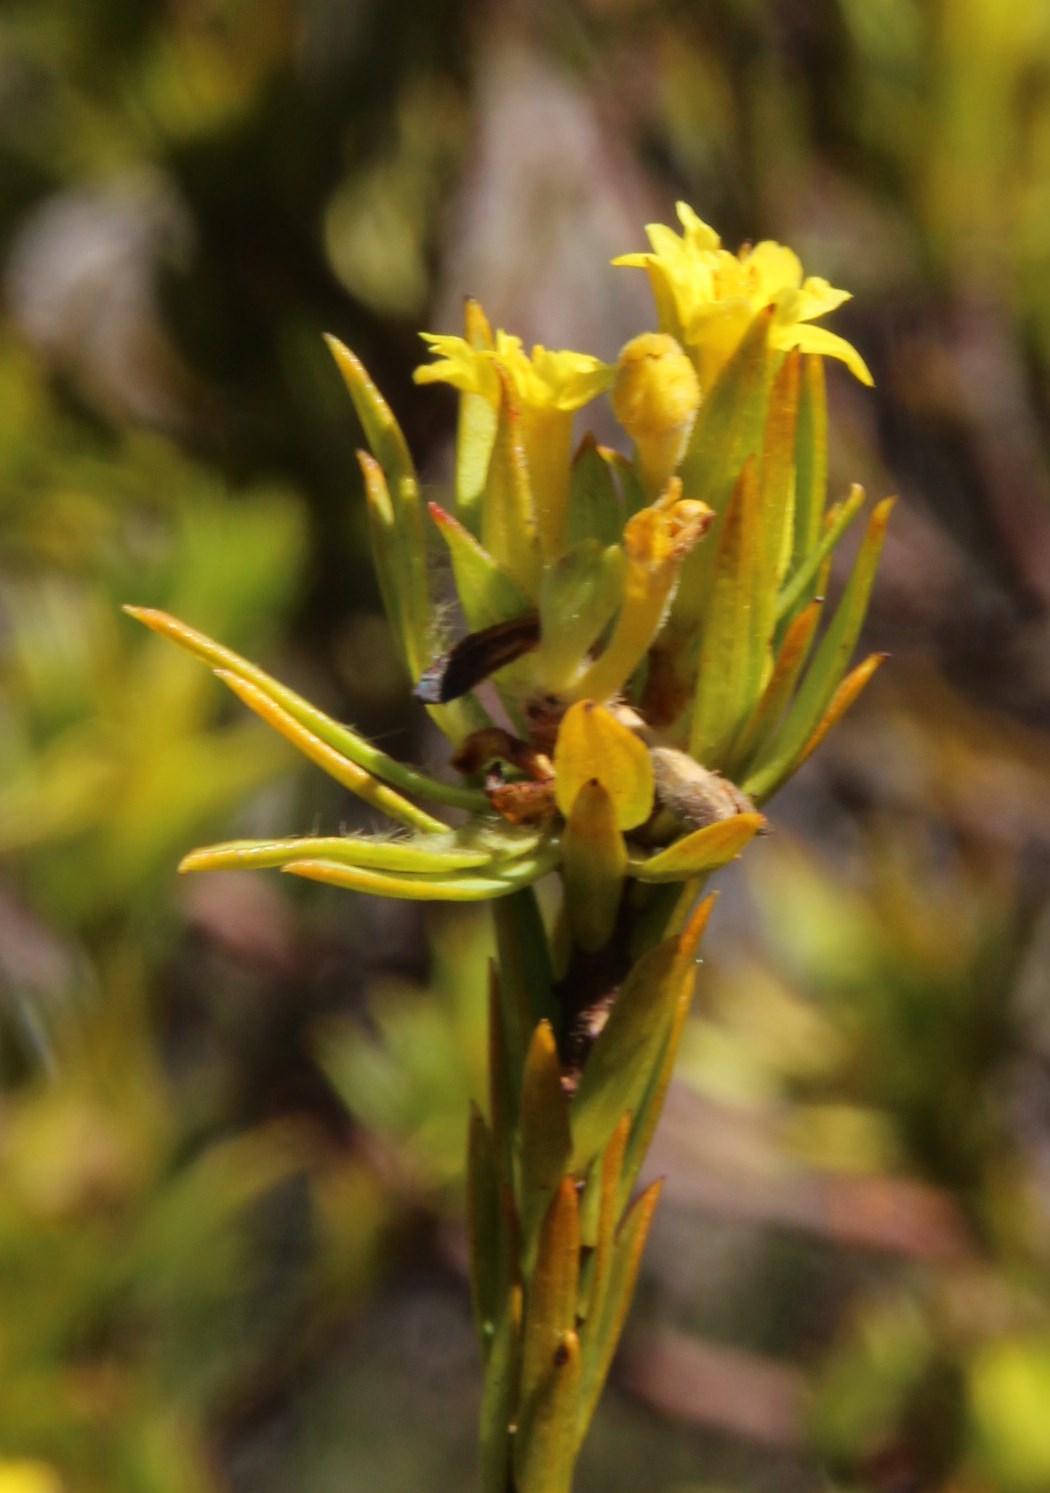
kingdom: Plantae
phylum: Tracheophyta
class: Magnoliopsida
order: Malvales
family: Thymelaeaceae
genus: Gnidia
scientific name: Gnidia juniperifolia
